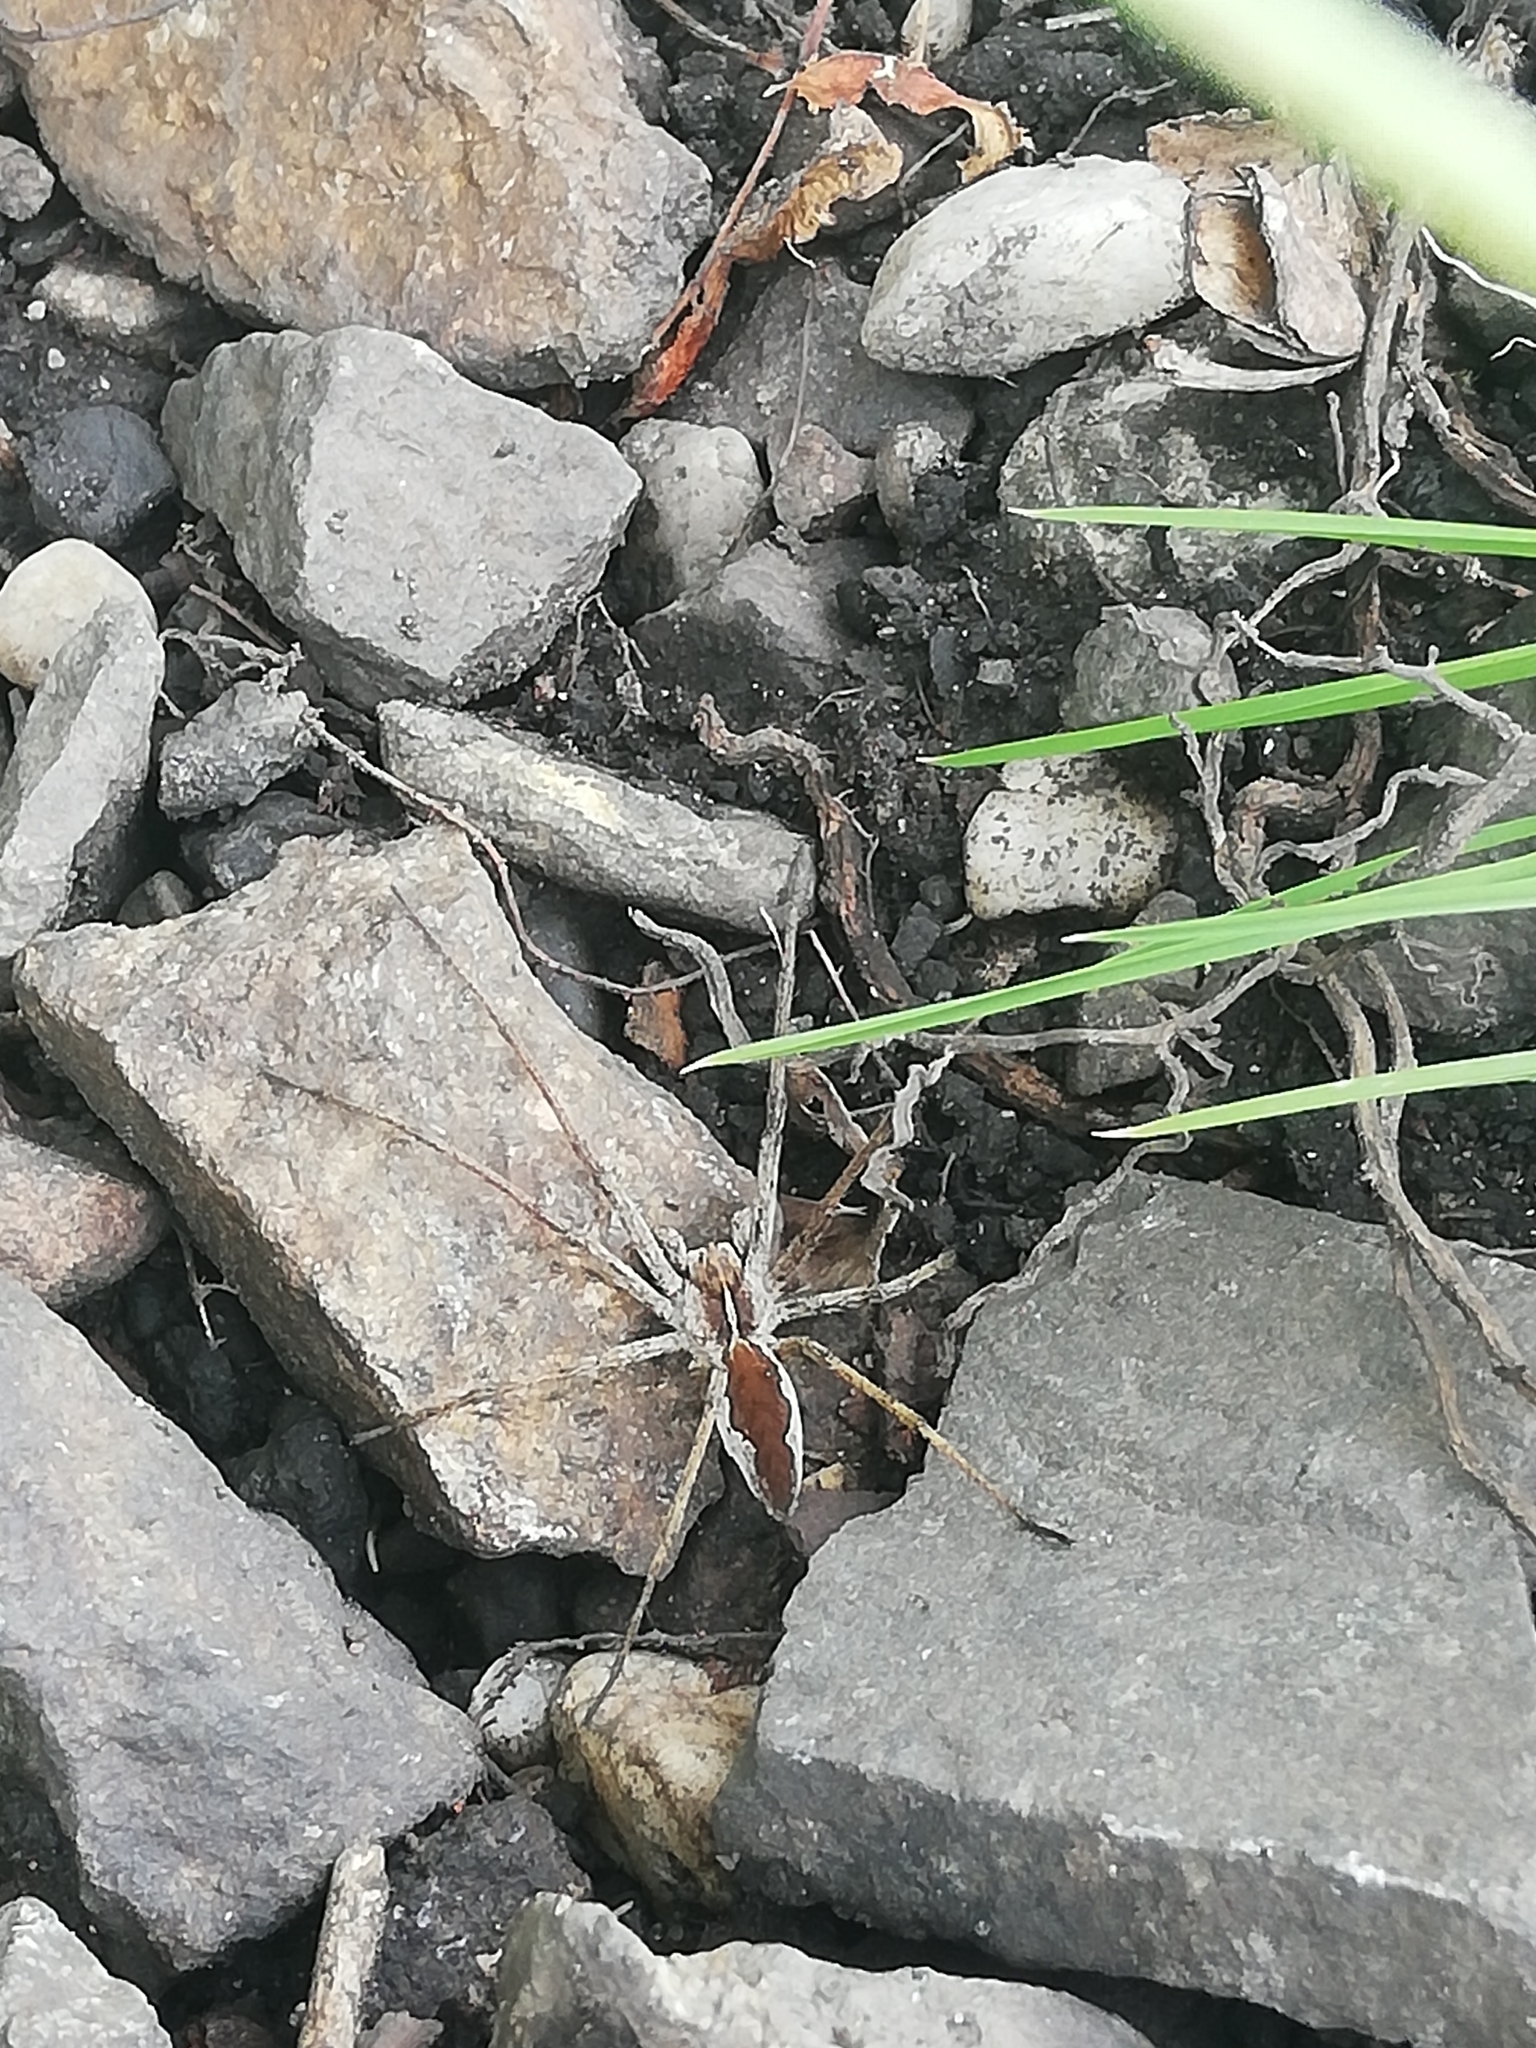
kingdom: Animalia
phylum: Arthropoda
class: Arachnida
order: Araneae
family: Pisauridae
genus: Pisaura
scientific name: Pisaura mirabilis
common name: Tent spider
